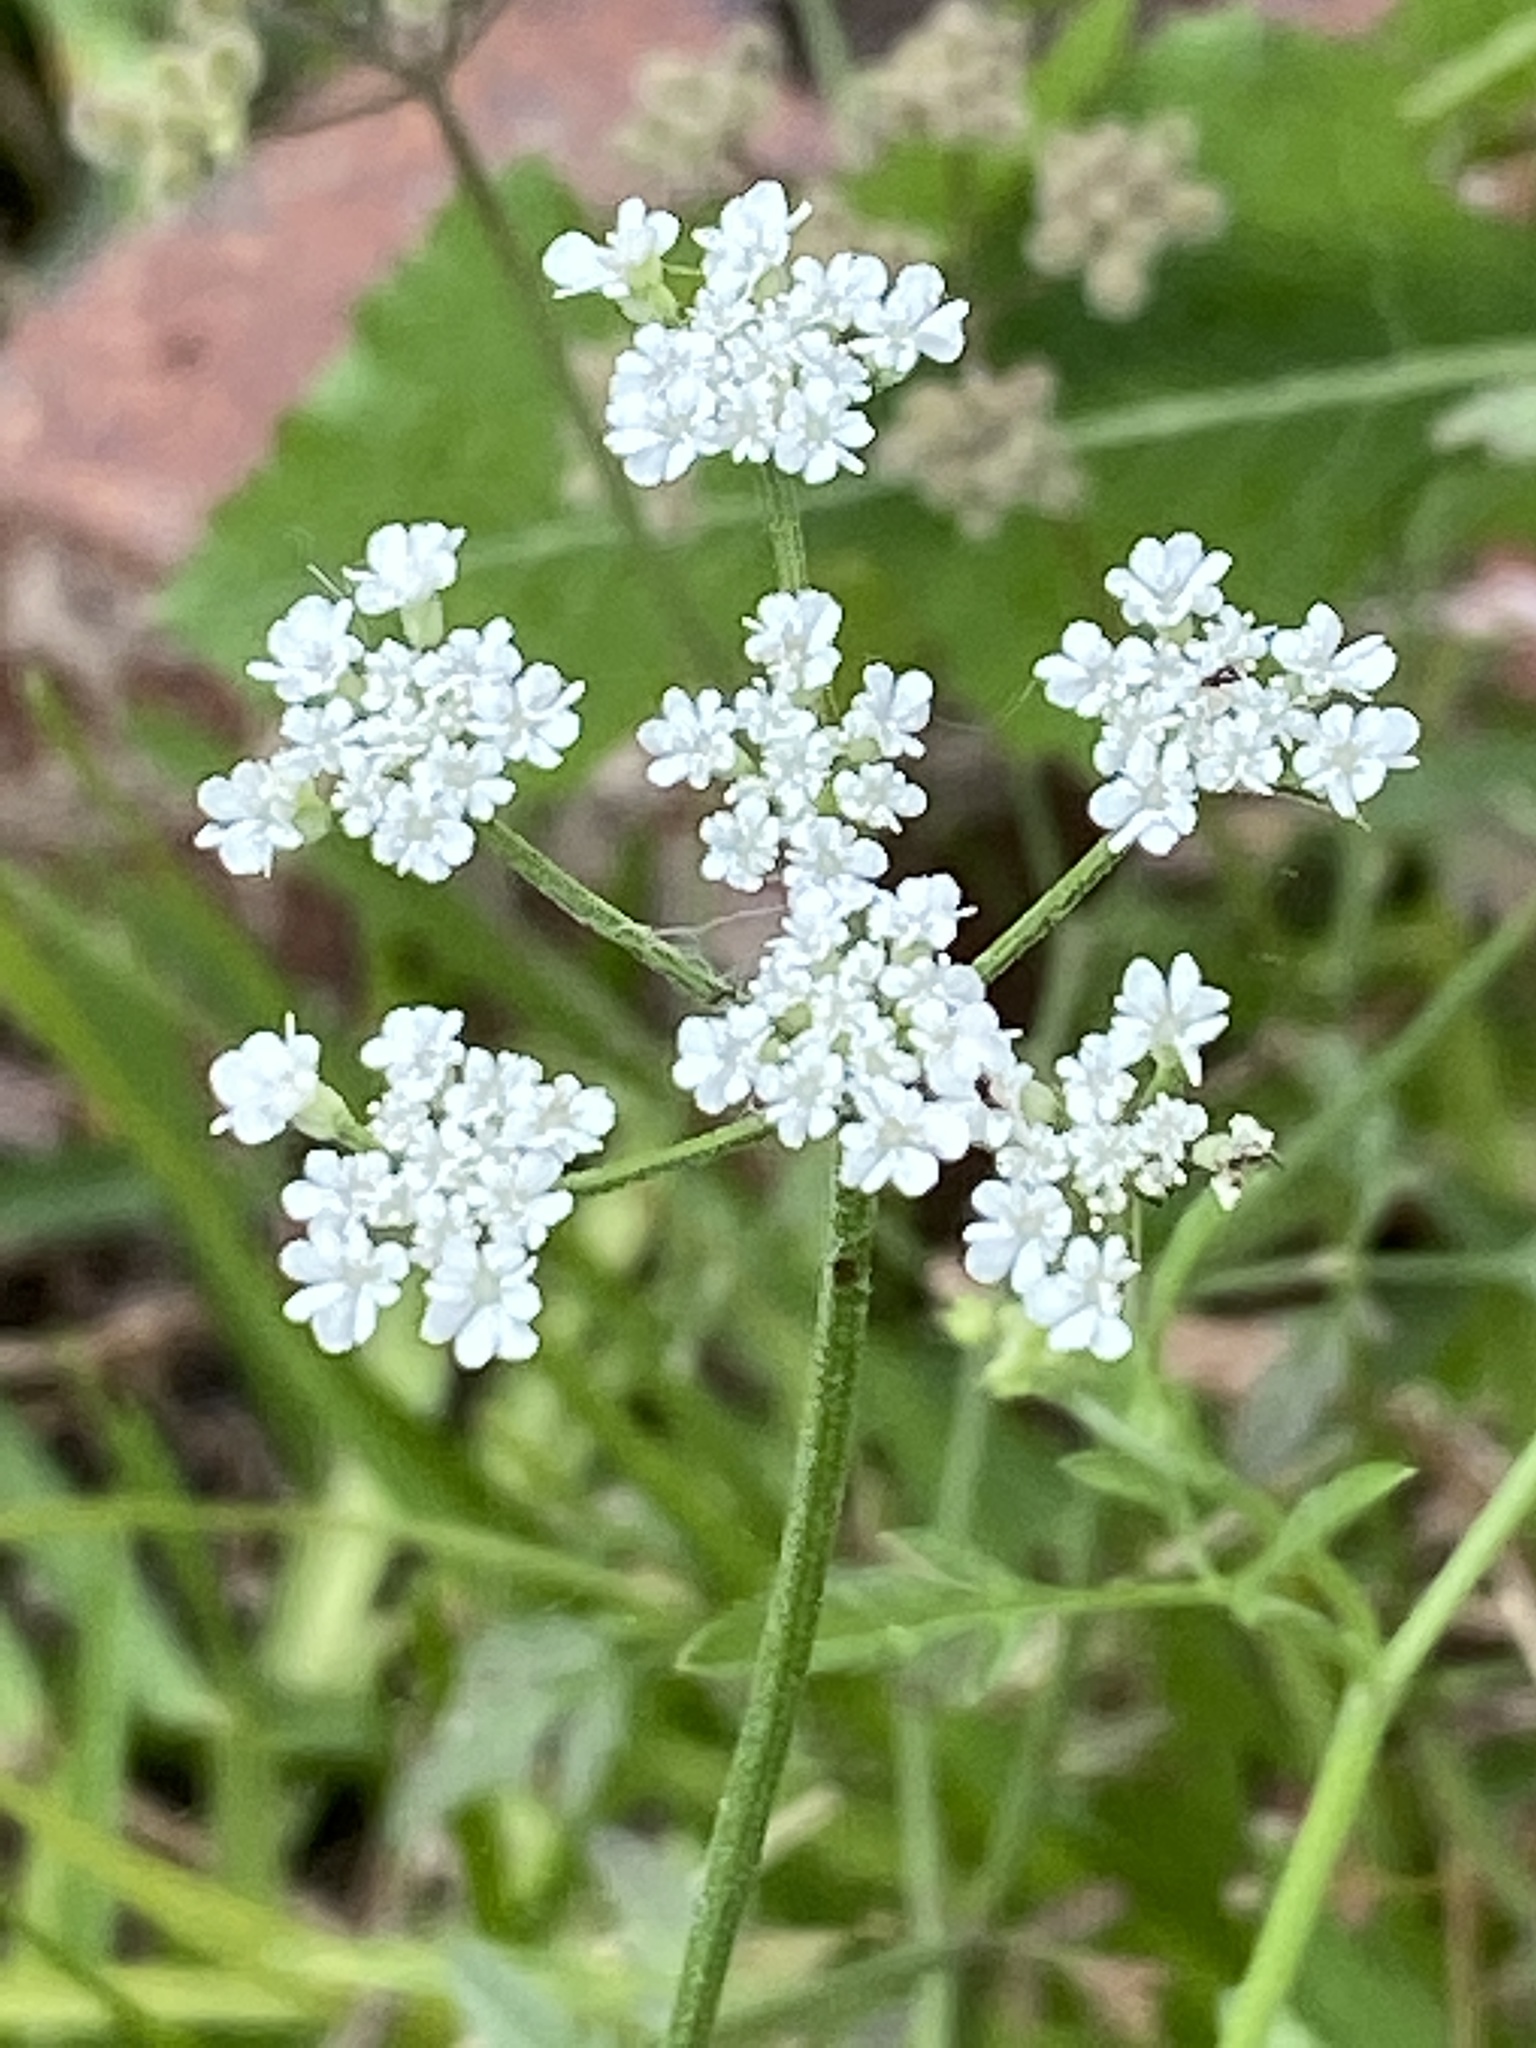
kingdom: Plantae
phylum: Tracheophyta
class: Magnoliopsida
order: Apiales
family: Apiaceae
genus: Torilis
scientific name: Torilis arvensis
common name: Spreading hedge-parsley
